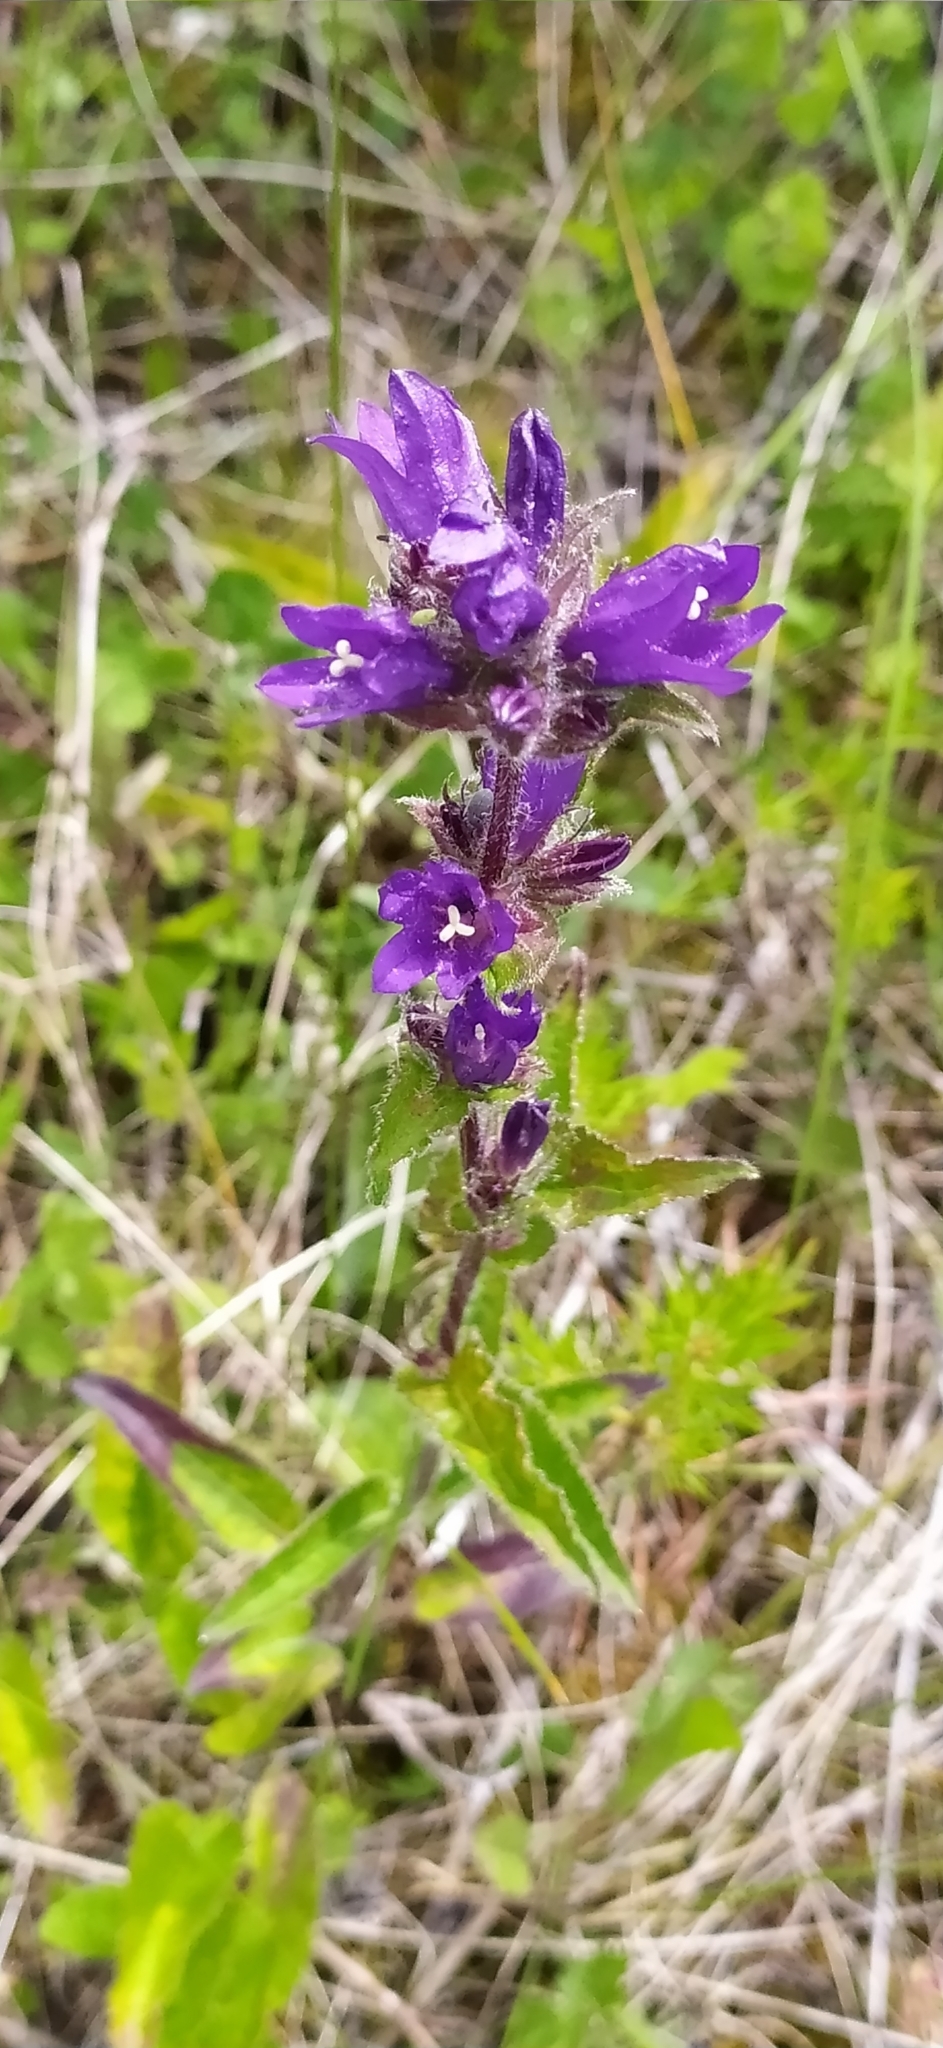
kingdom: Plantae
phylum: Tracheophyta
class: Magnoliopsida
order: Asterales
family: Campanulaceae
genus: Campanula
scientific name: Campanula glomerata
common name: Clustered bellflower
